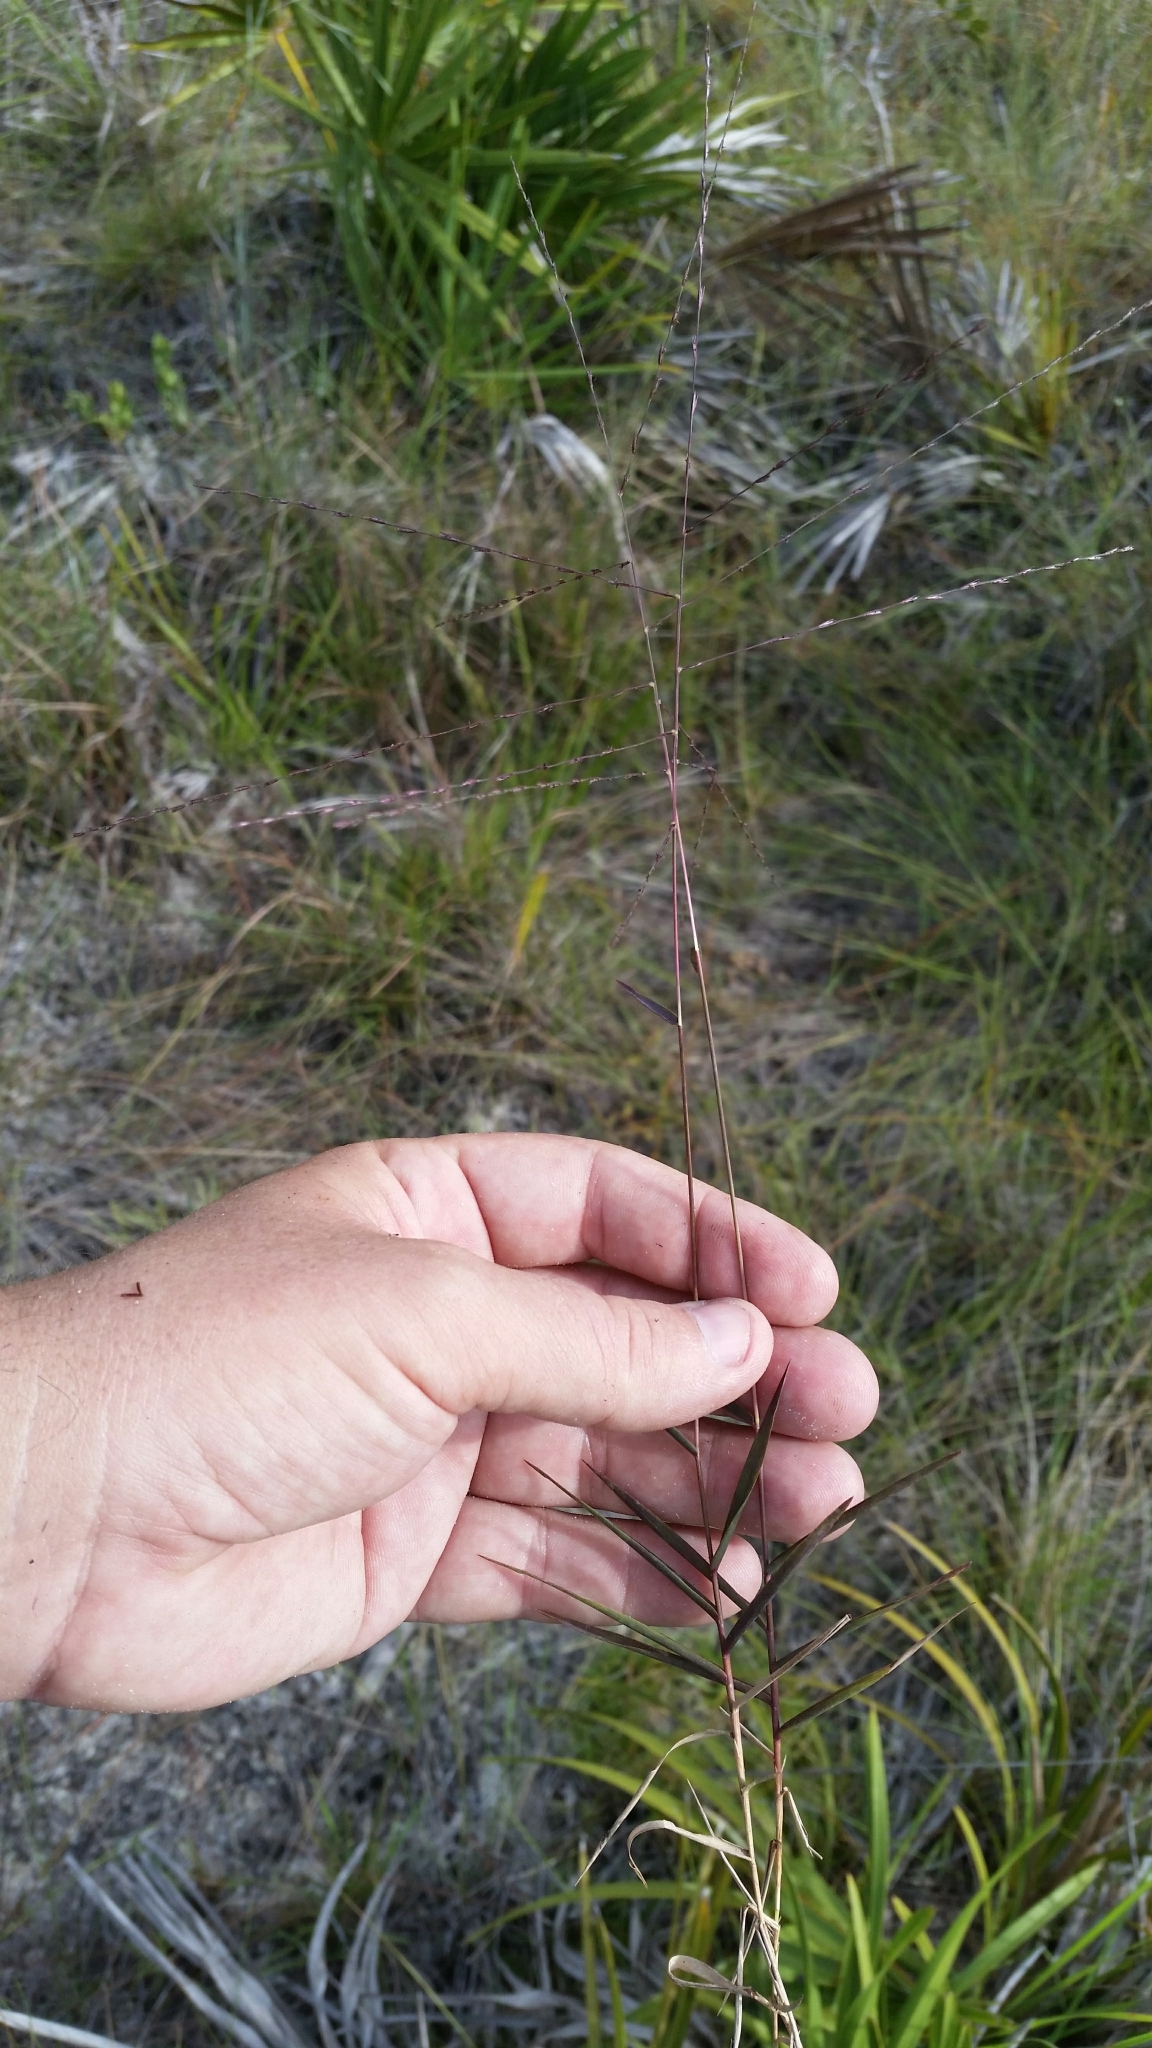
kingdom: Plantae
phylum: Tracheophyta
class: Liliopsida
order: Poales
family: Poaceae
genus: Gymnopogon
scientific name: Gymnopogon chapmanianus
